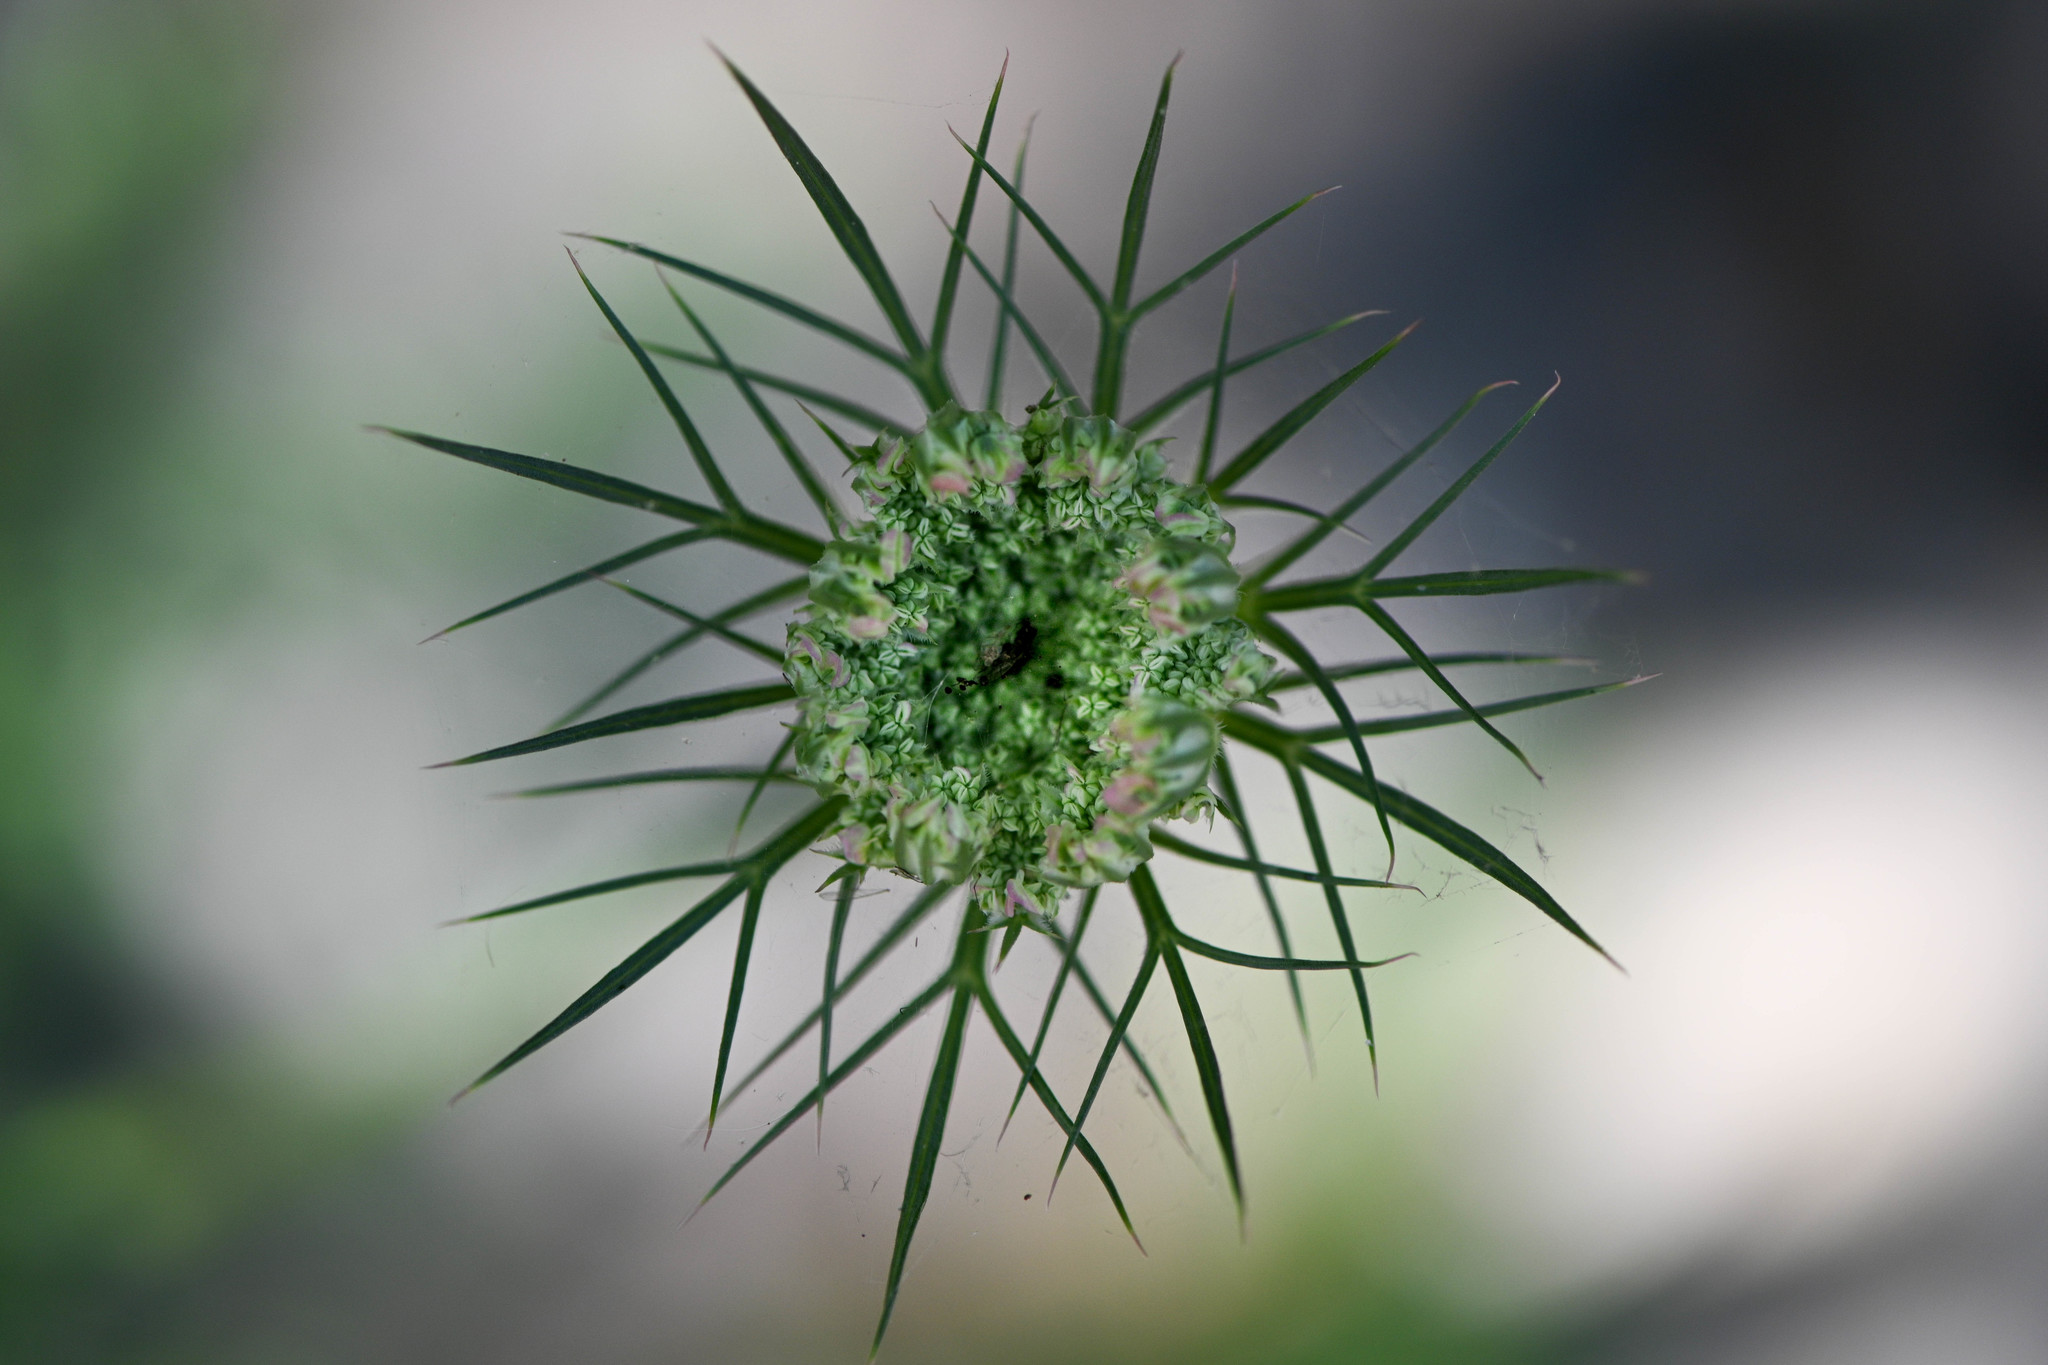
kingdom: Plantae
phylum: Tracheophyta
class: Magnoliopsida
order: Apiales
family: Apiaceae
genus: Daucus
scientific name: Daucus carota
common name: Wild carrot
